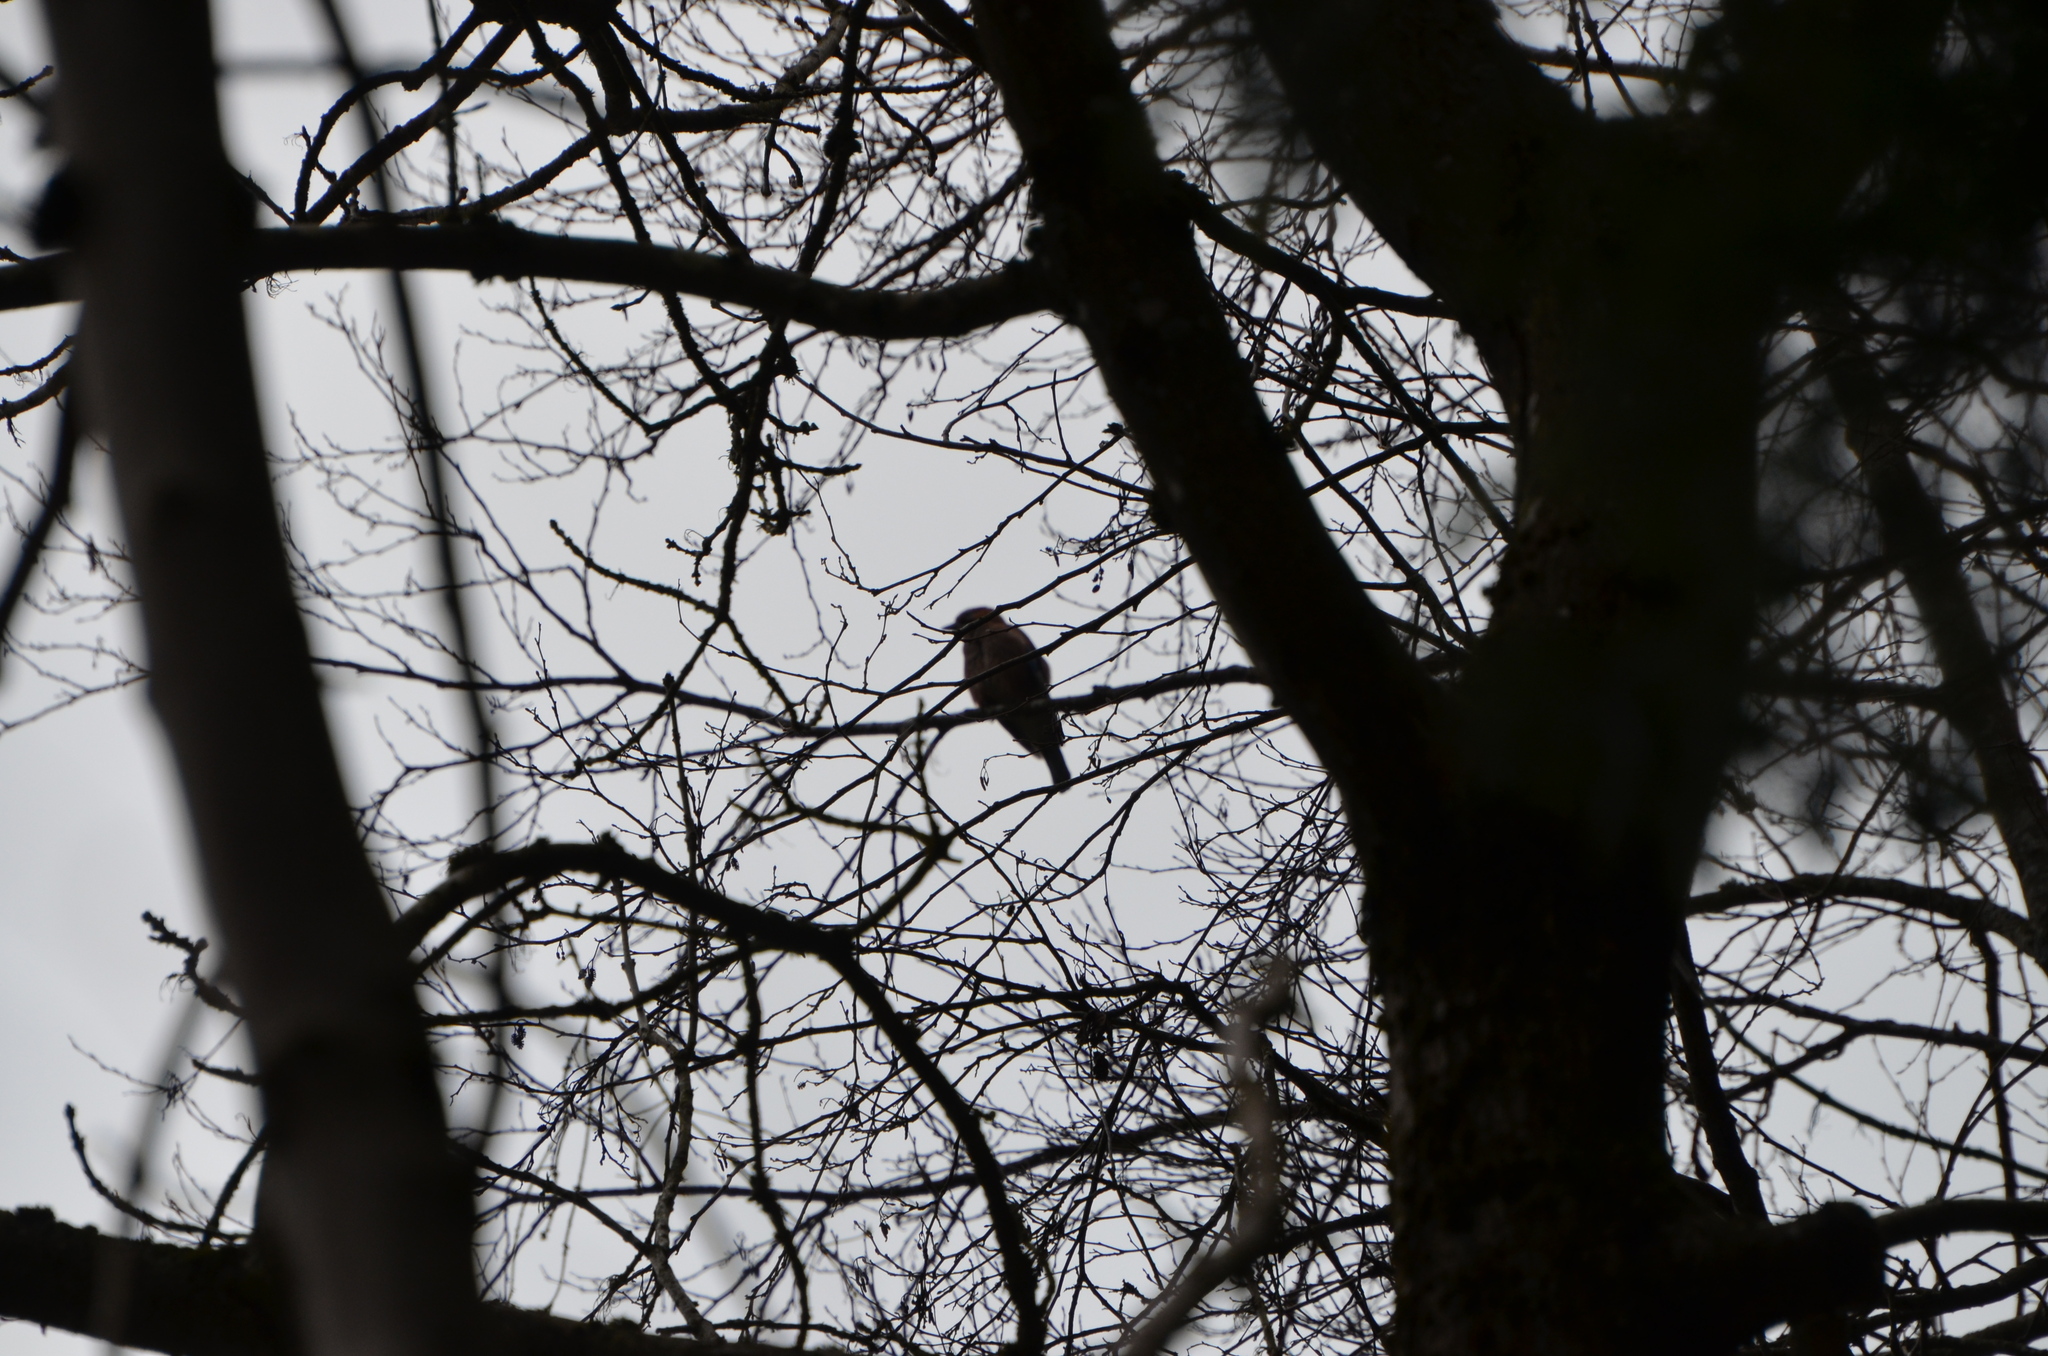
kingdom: Animalia
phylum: Chordata
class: Aves
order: Passeriformes
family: Corvidae
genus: Garrulus
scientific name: Garrulus glandarius
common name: Eurasian jay
